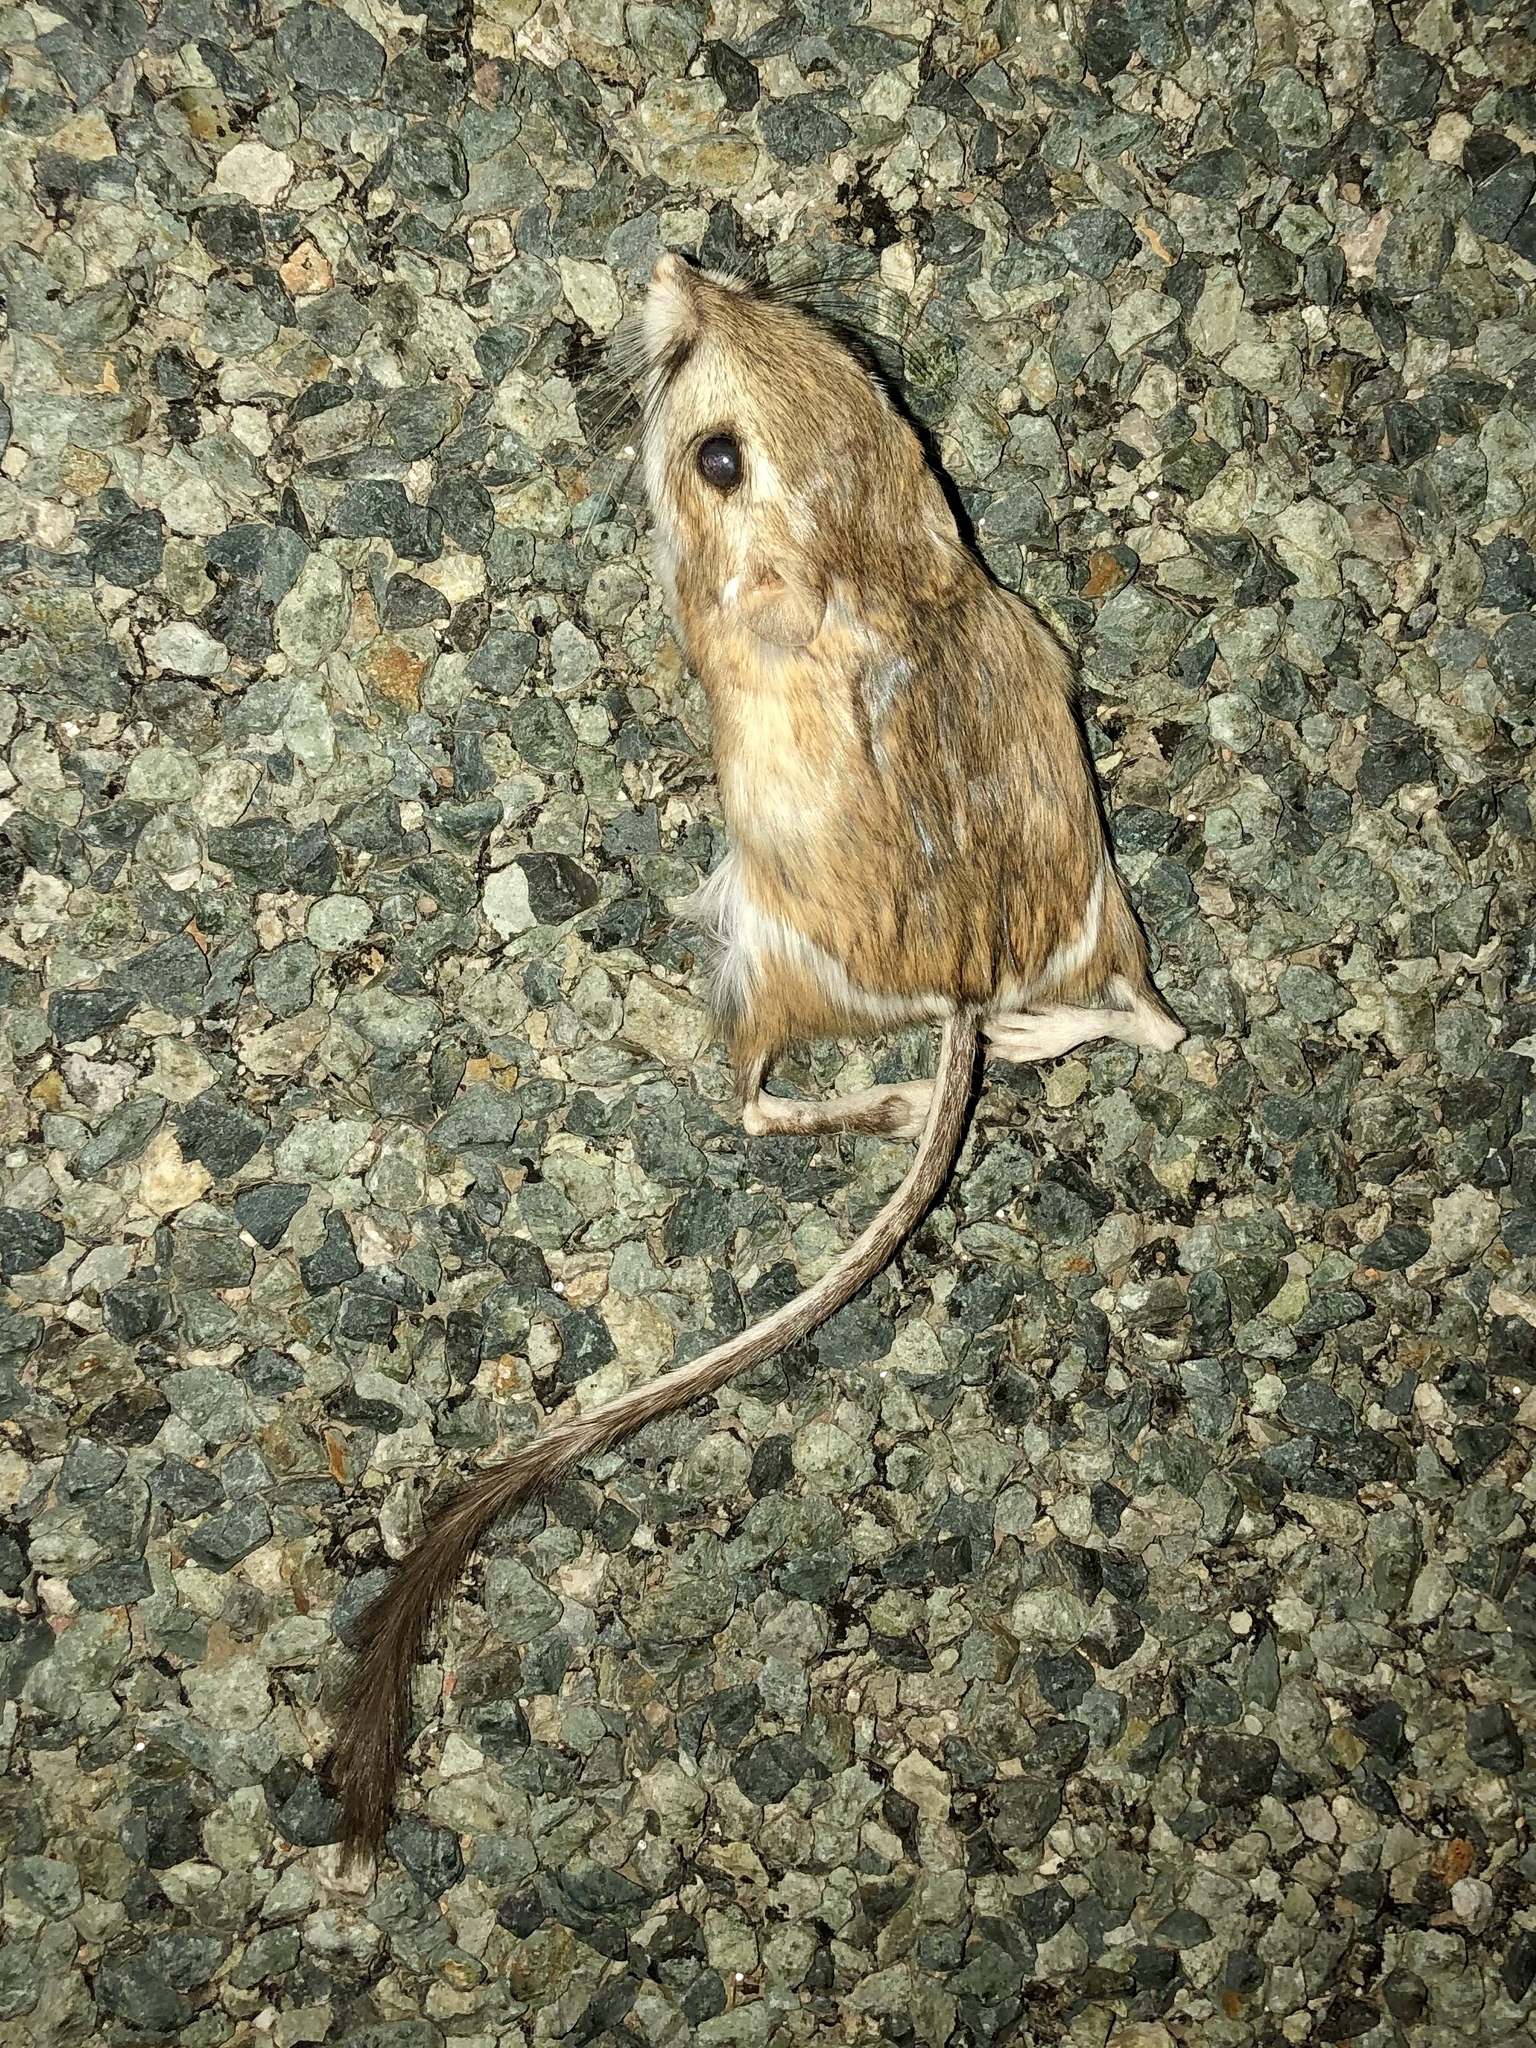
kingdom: Animalia
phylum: Chordata
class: Mammalia
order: Rodentia
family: Heteromyidae
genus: Dipodomys
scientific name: Dipodomys ordii
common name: Ord's kangaroo rat
